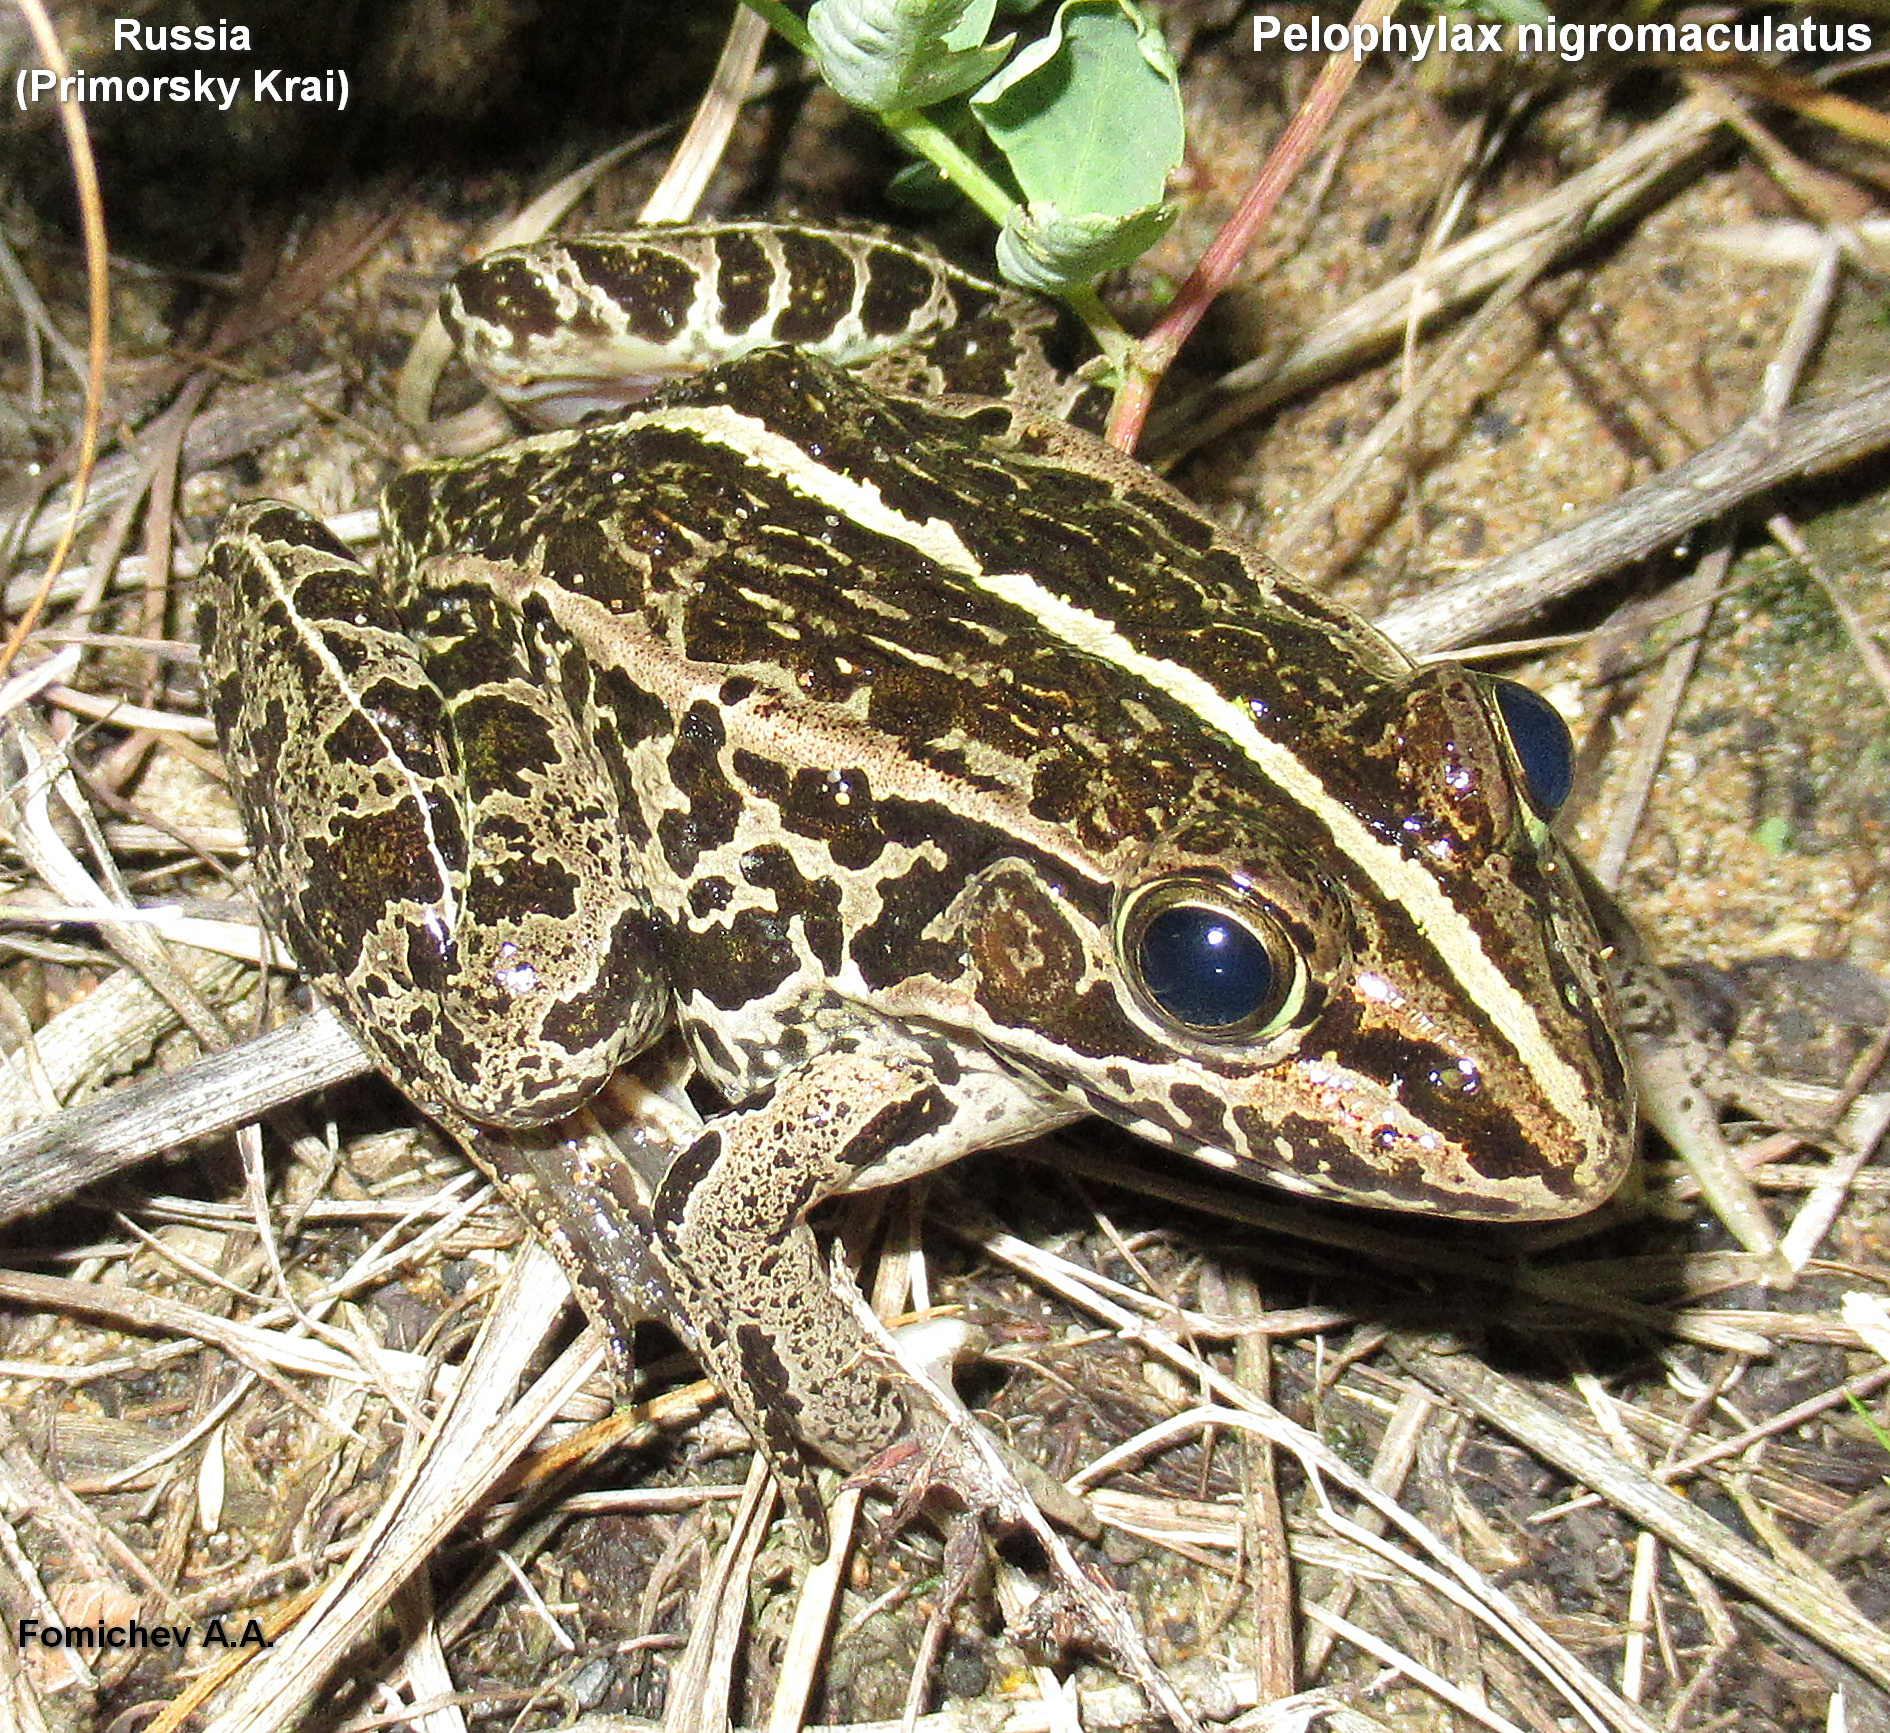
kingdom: Animalia
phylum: Chordata
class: Amphibia
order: Anura
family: Ranidae
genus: Pelophylax
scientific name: Pelophylax nigromaculatus
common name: Black-spotted pond frog
